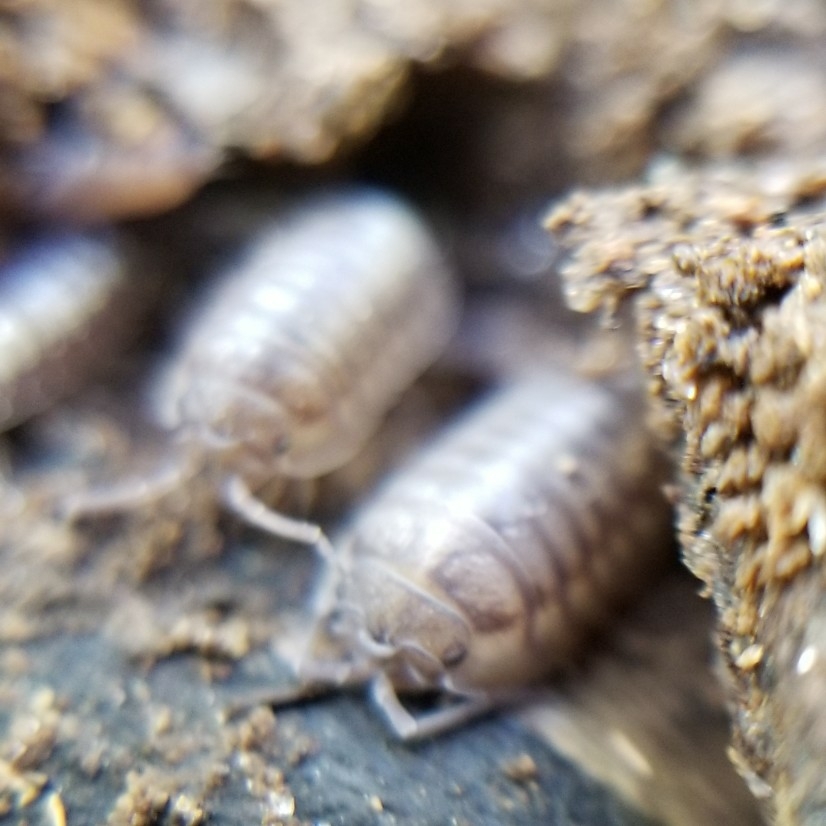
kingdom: Animalia
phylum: Arthropoda
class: Malacostraca
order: Isopoda
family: Armadillidiidae
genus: Armadillidium
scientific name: Armadillidium nasatum
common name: Isopod
